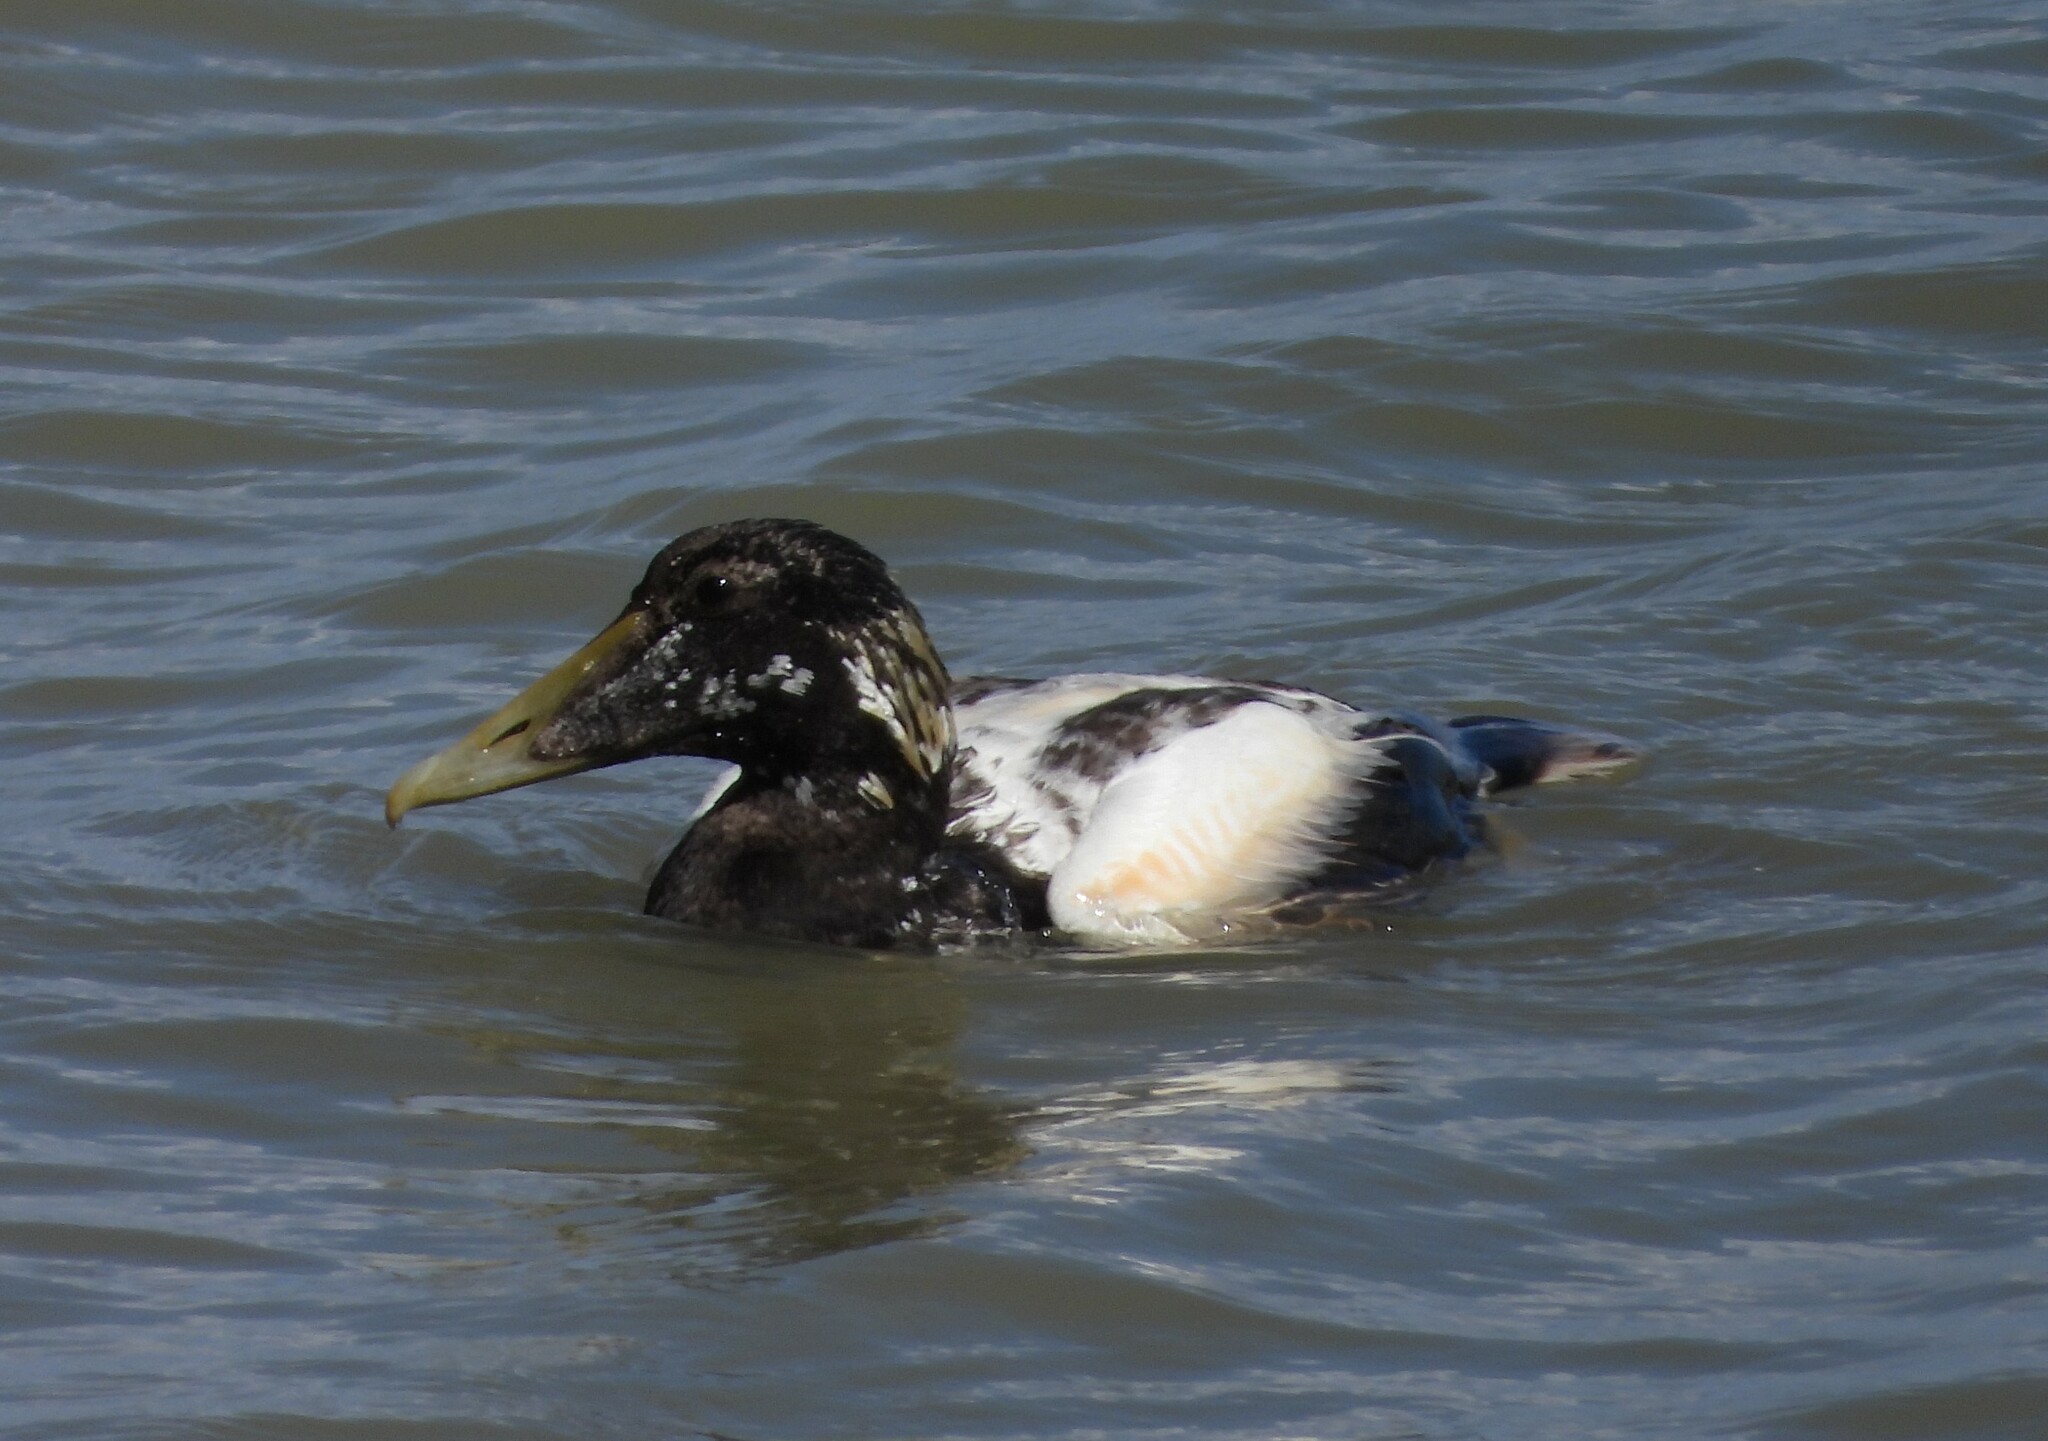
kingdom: Animalia
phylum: Chordata
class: Aves
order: Anseriformes
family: Anatidae
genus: Somateria
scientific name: Somateria mollissima
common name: Common eider
